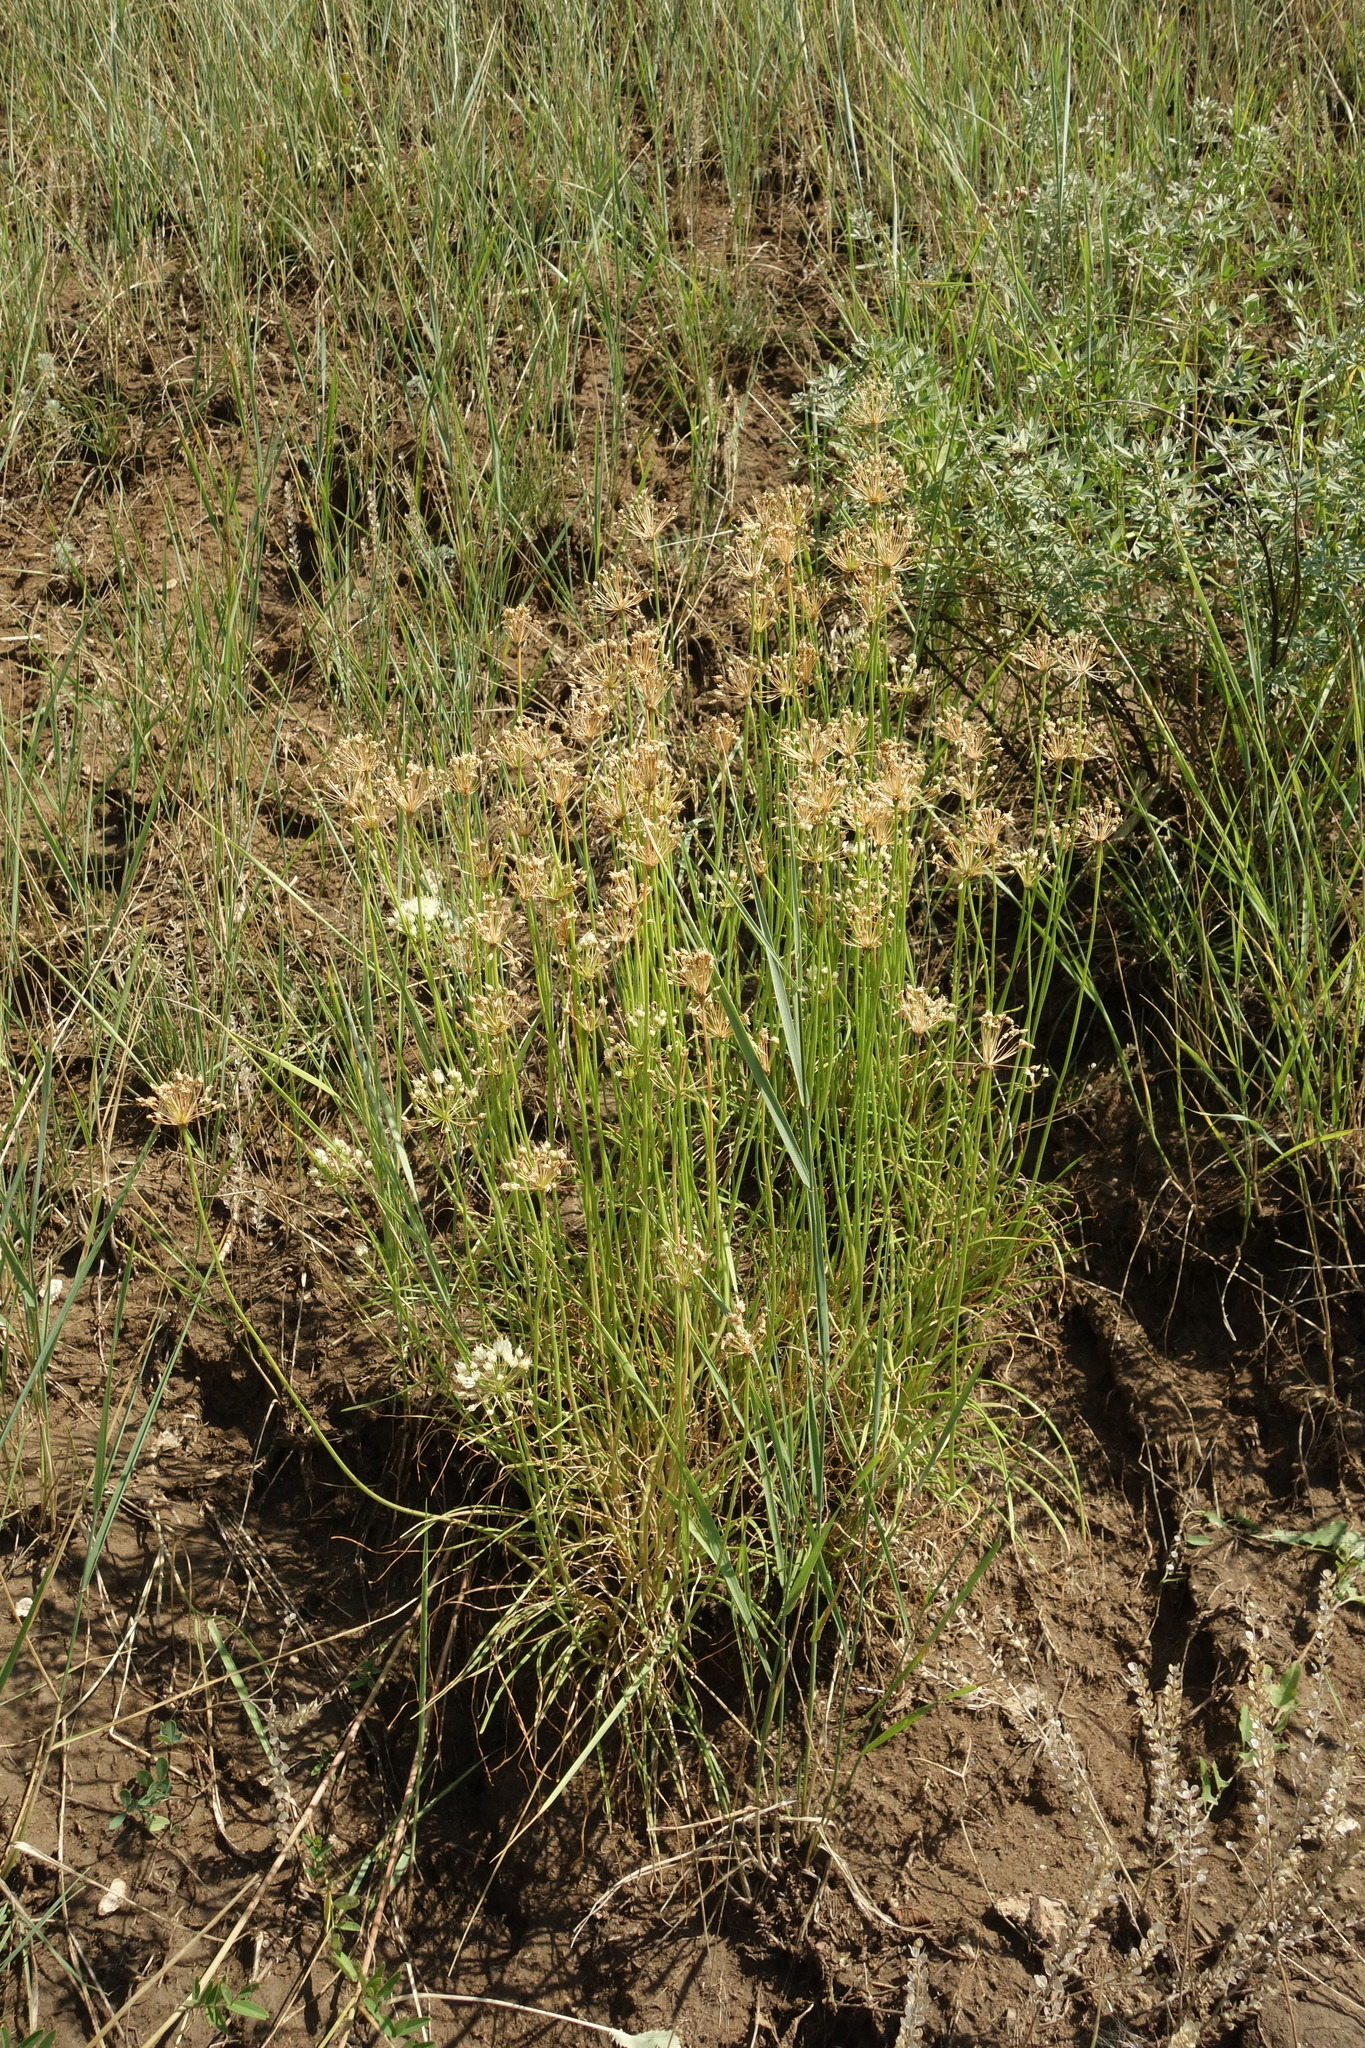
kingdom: Plantae
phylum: Tracheophyta
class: Liliopsida
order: Asparagales
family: Amaryllidaceae
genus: Allium
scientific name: Allium flavescens
